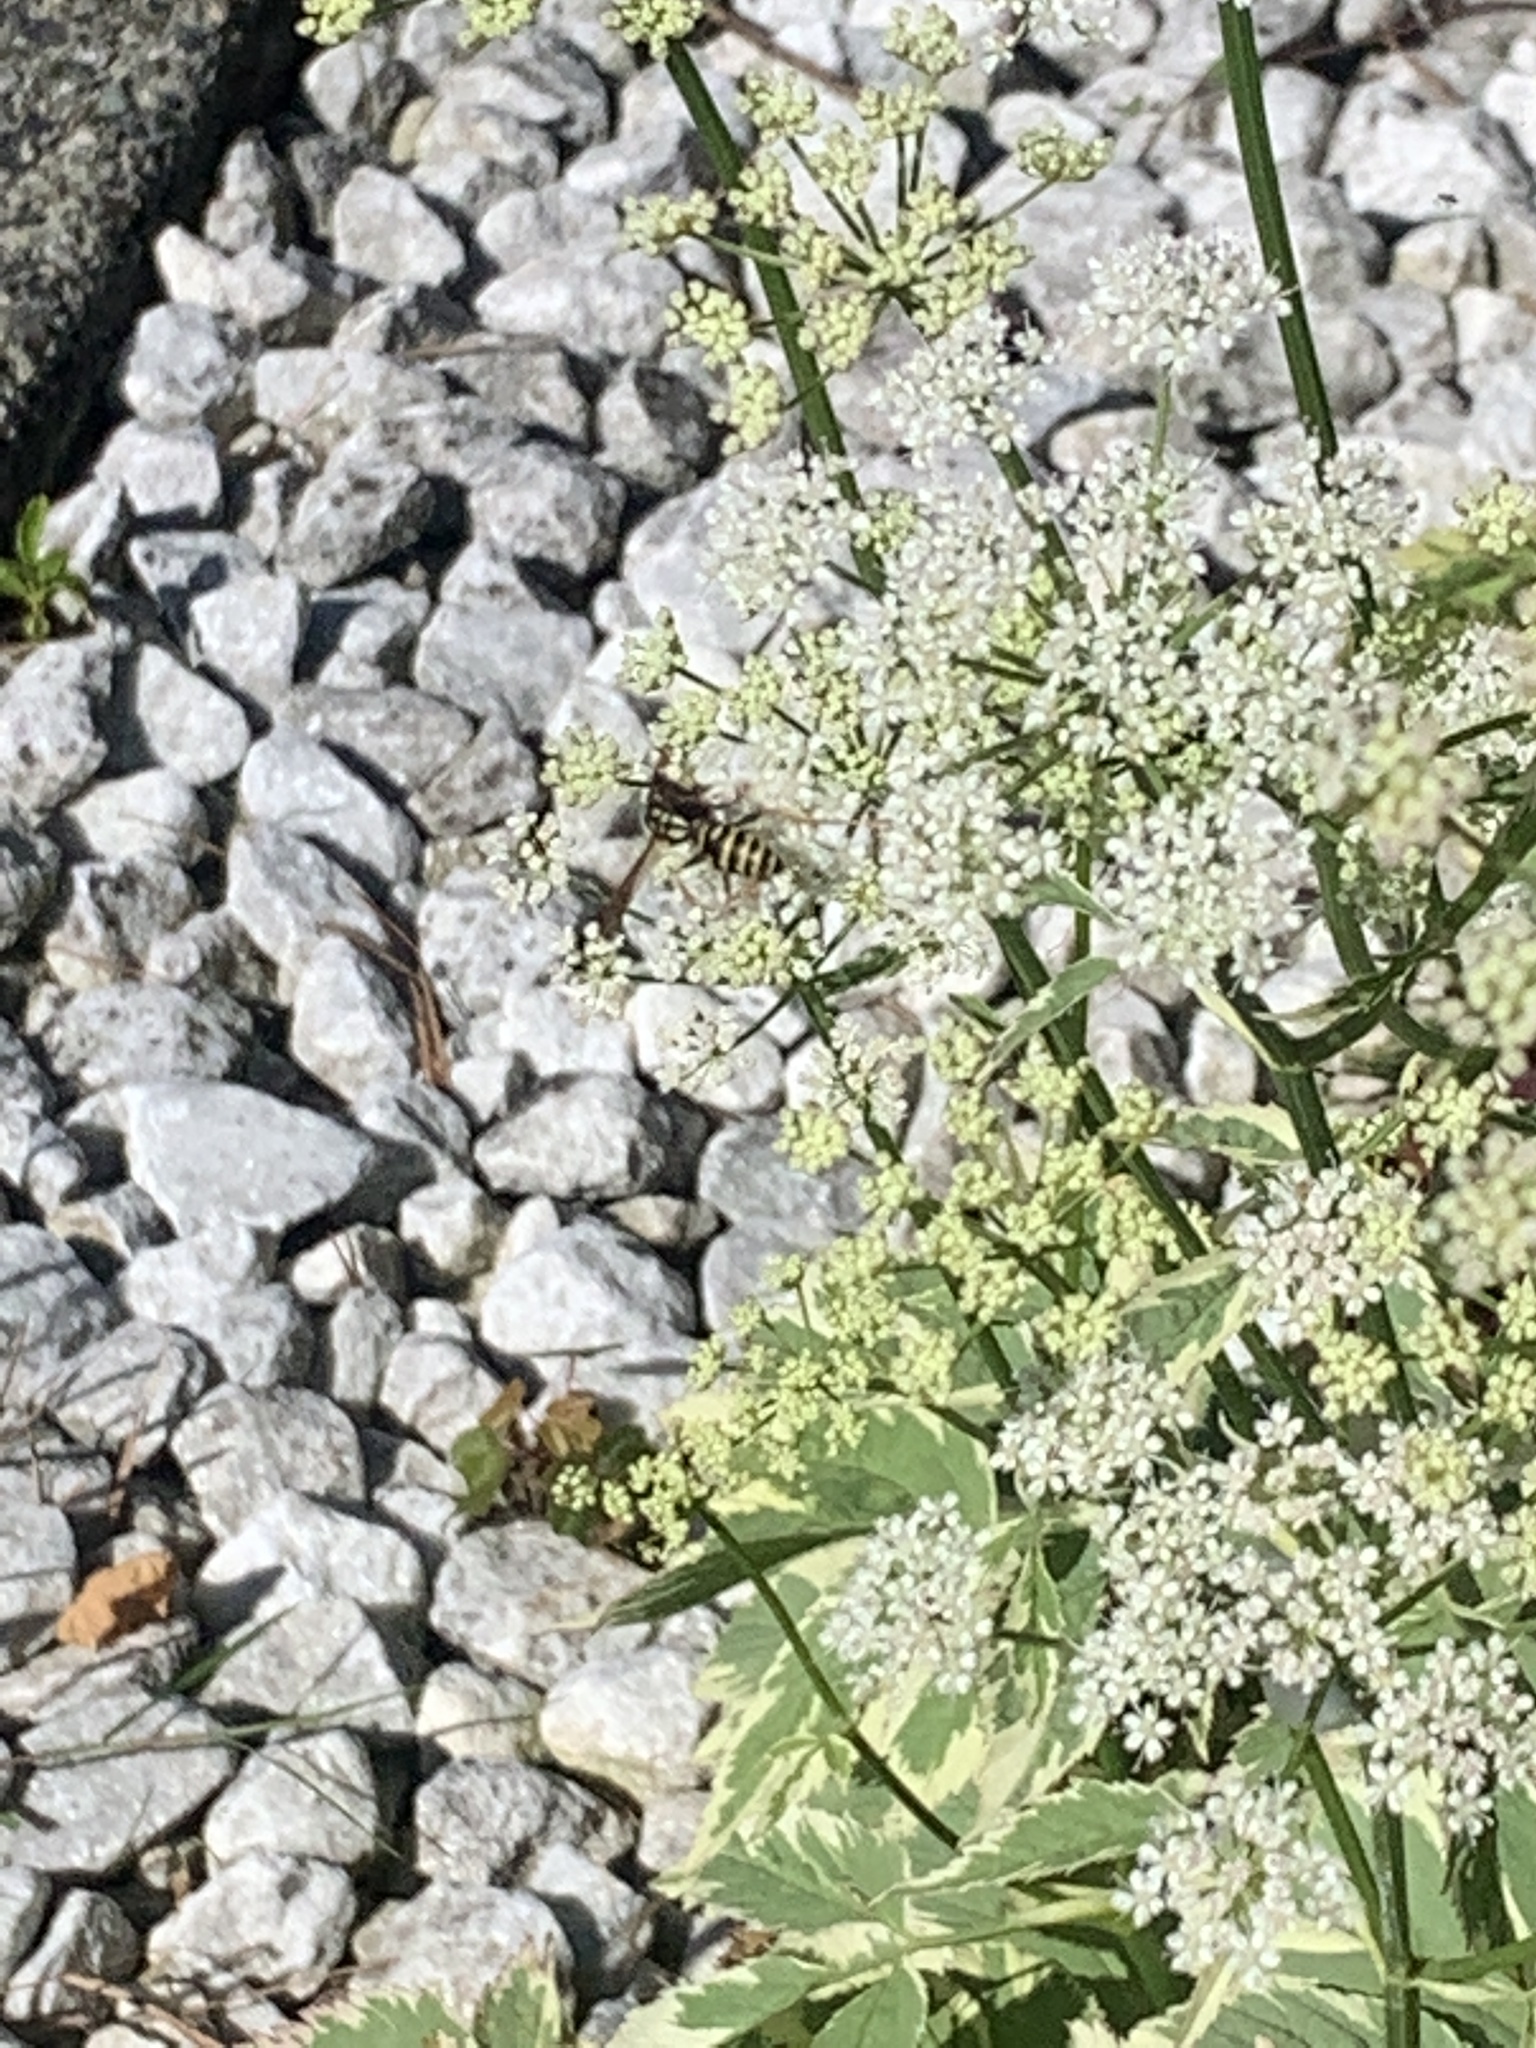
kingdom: Animalia
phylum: Arthropoda
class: Insecta
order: Hymenoptera
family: Eumenidae
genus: Polistes
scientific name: Polistes dominula
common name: Paper wasp
